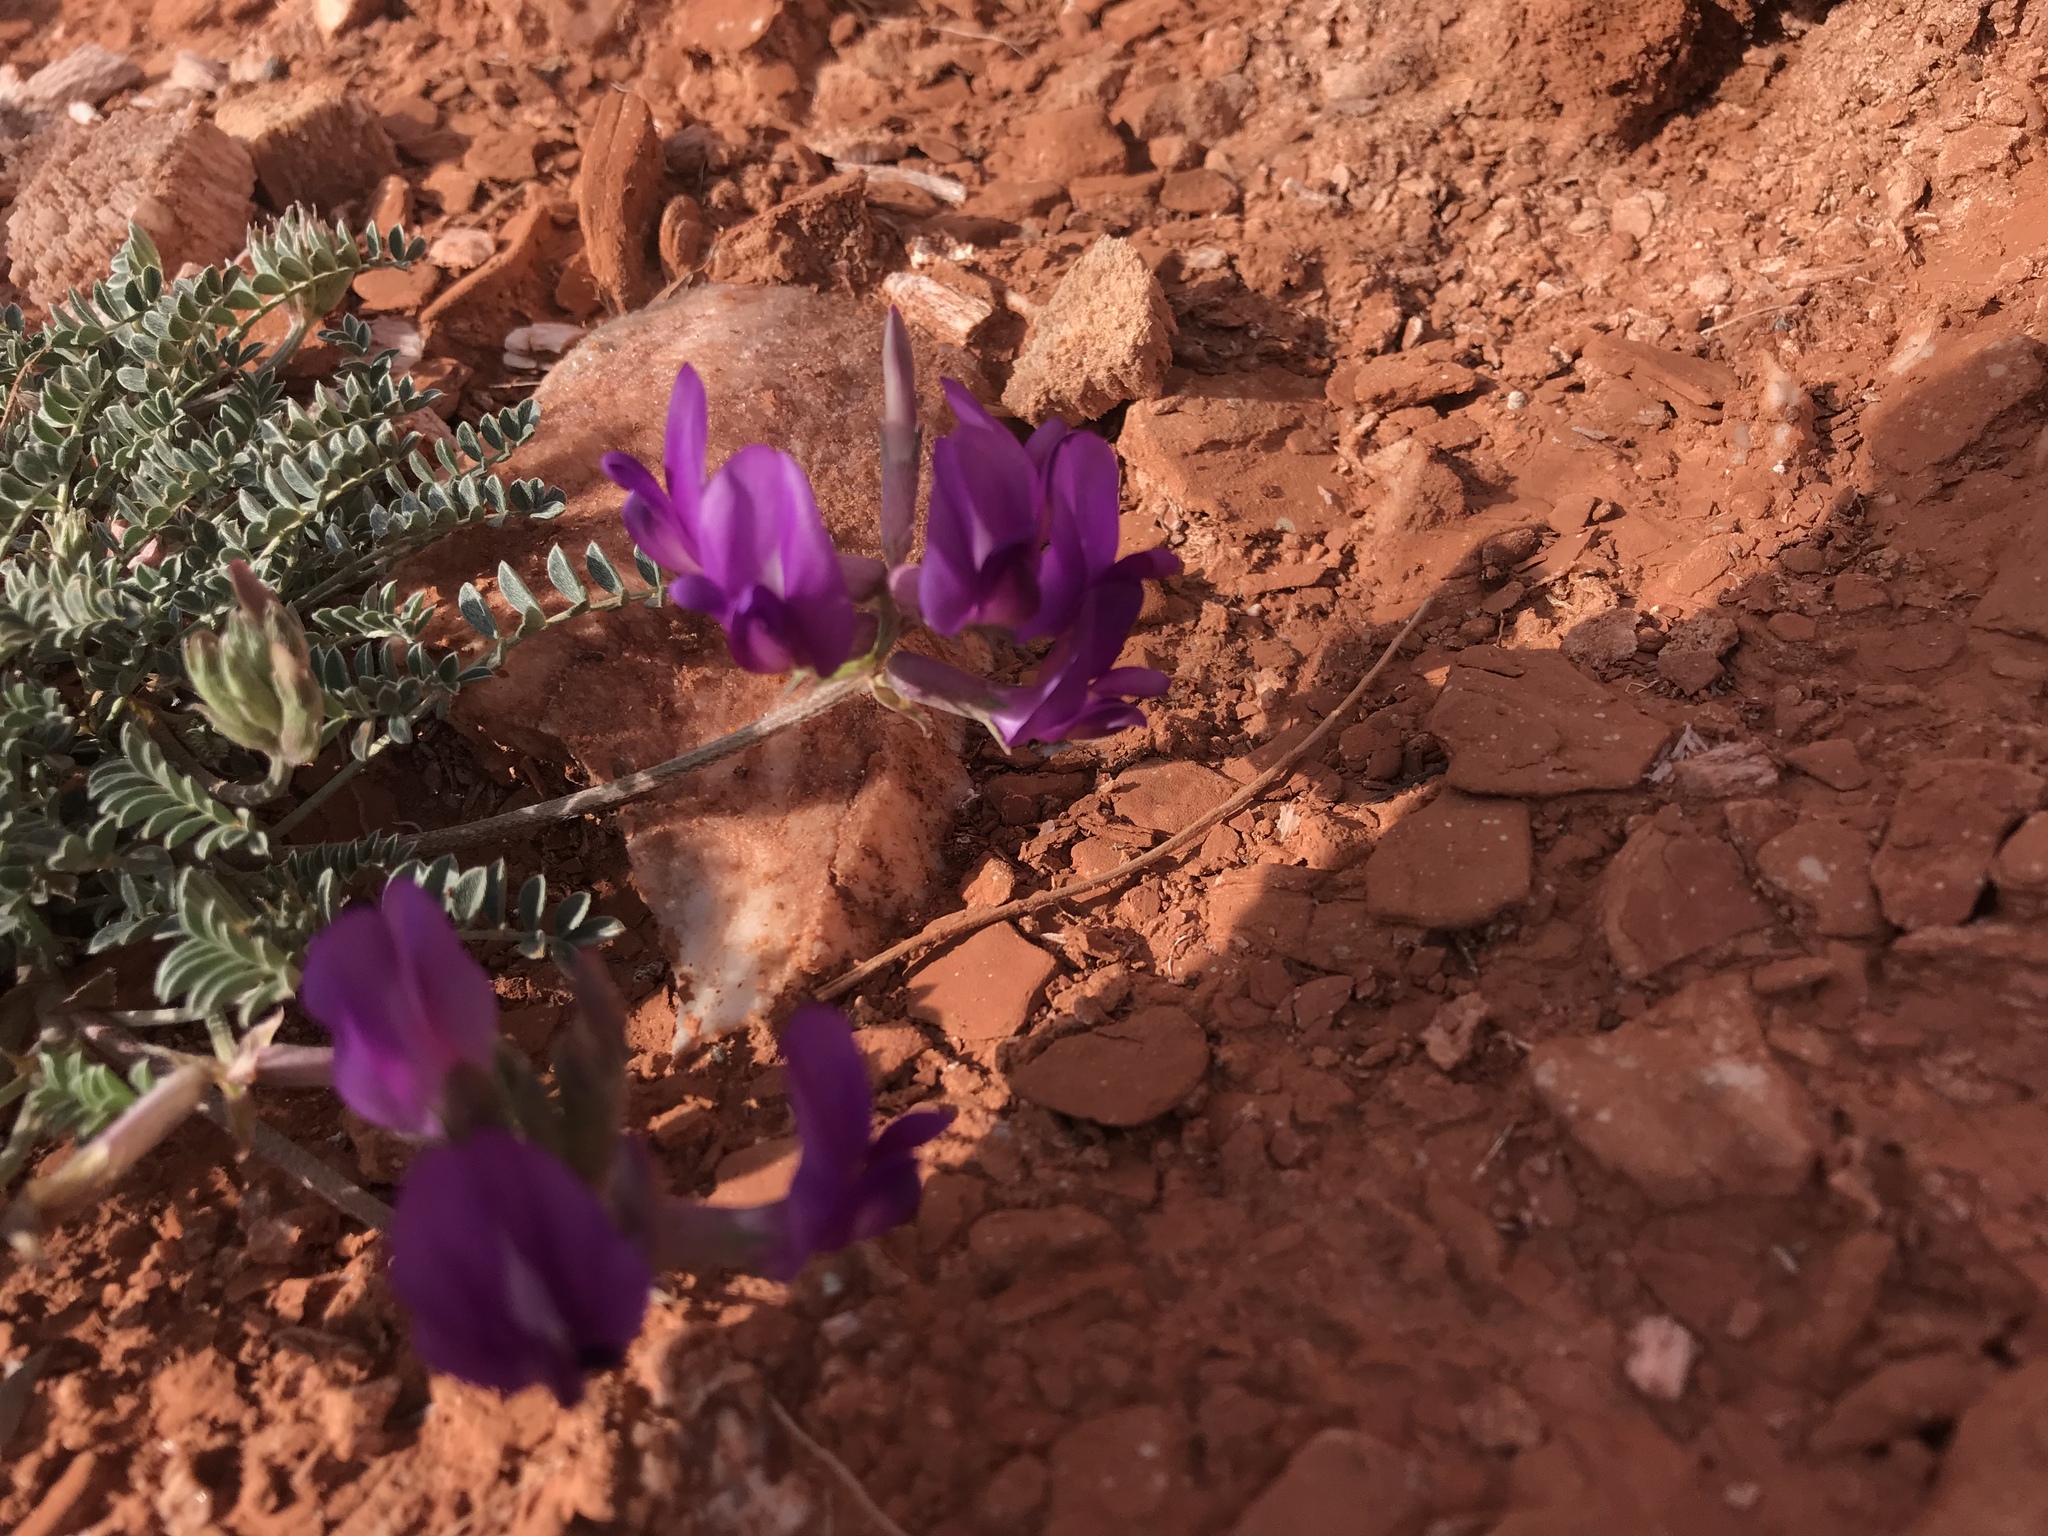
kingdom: Plantae
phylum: Tracheophyta
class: Magnoliopsida
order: Fabales
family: Fabaceae
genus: Astragalus
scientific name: Astragalus missouriensis
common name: Missouri milk-vetch
